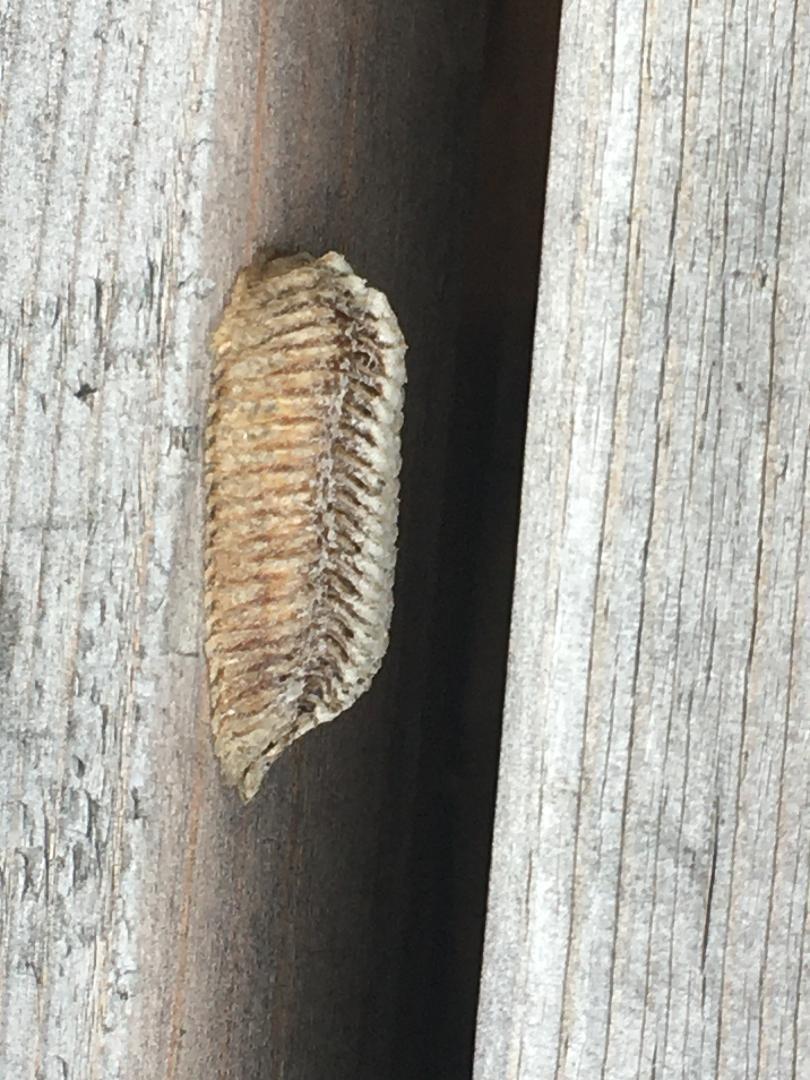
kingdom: Animalia
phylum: Arthropoda
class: Insecta
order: Mantodea
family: Mantidae
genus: Stagmomantis
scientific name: Stagmomantis carolina
